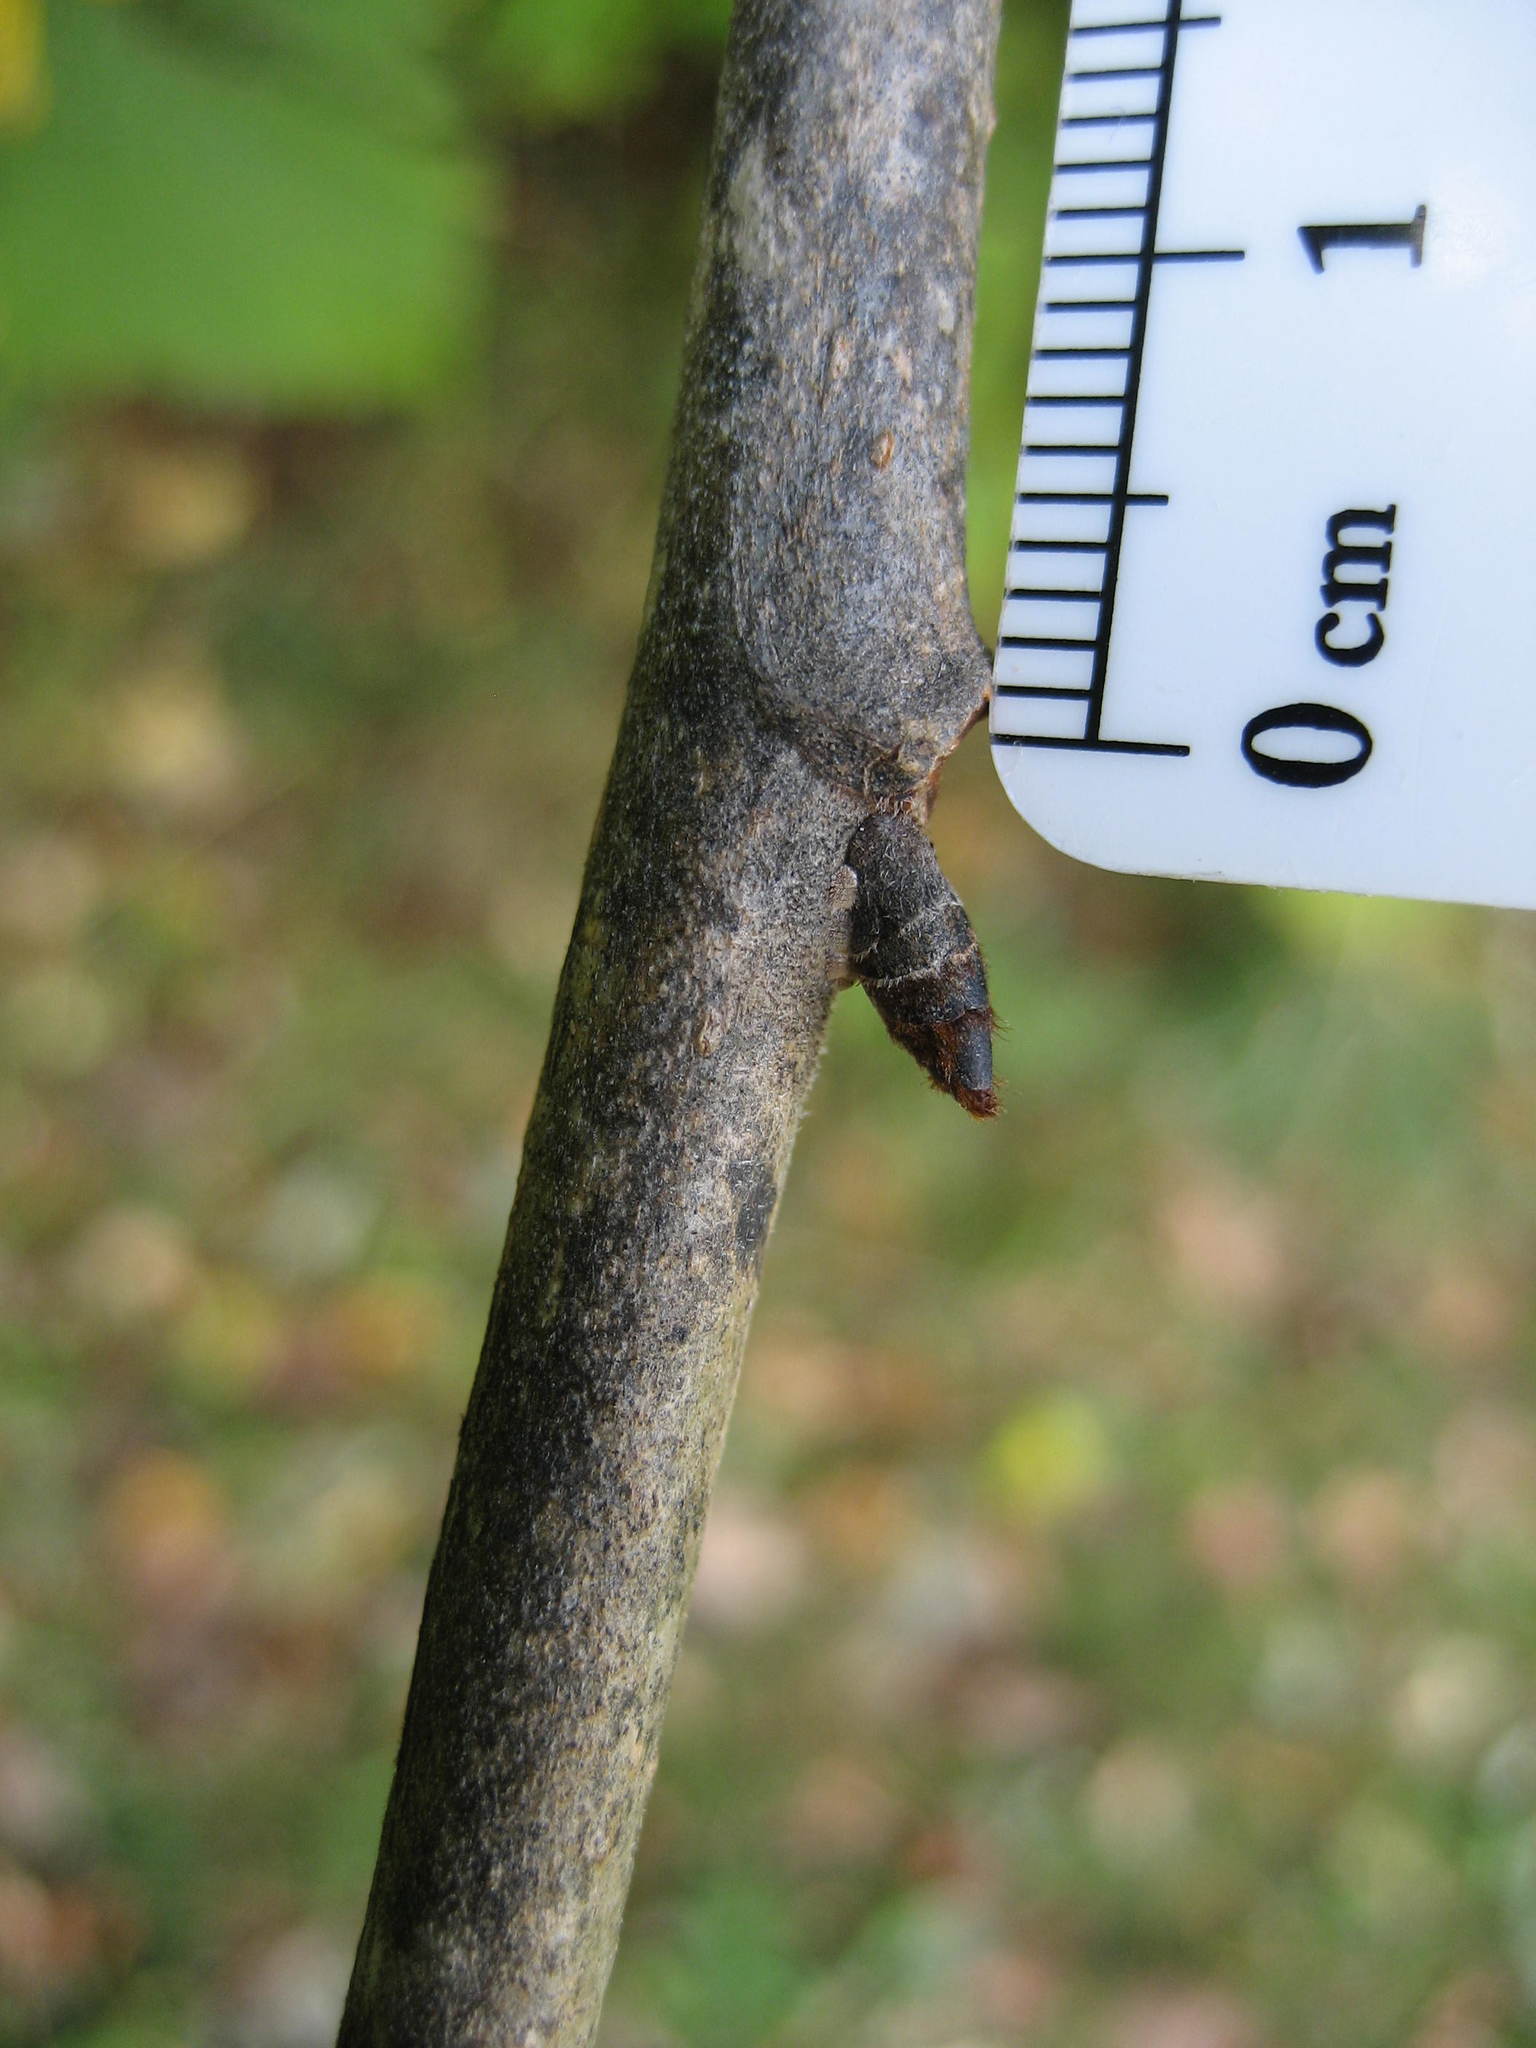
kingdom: Plantae
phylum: Tracheophyta
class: Magnoliopsida
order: Rosales
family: Ulmaceae
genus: Ulmus
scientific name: Ulmus rubra
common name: Slippery elm
